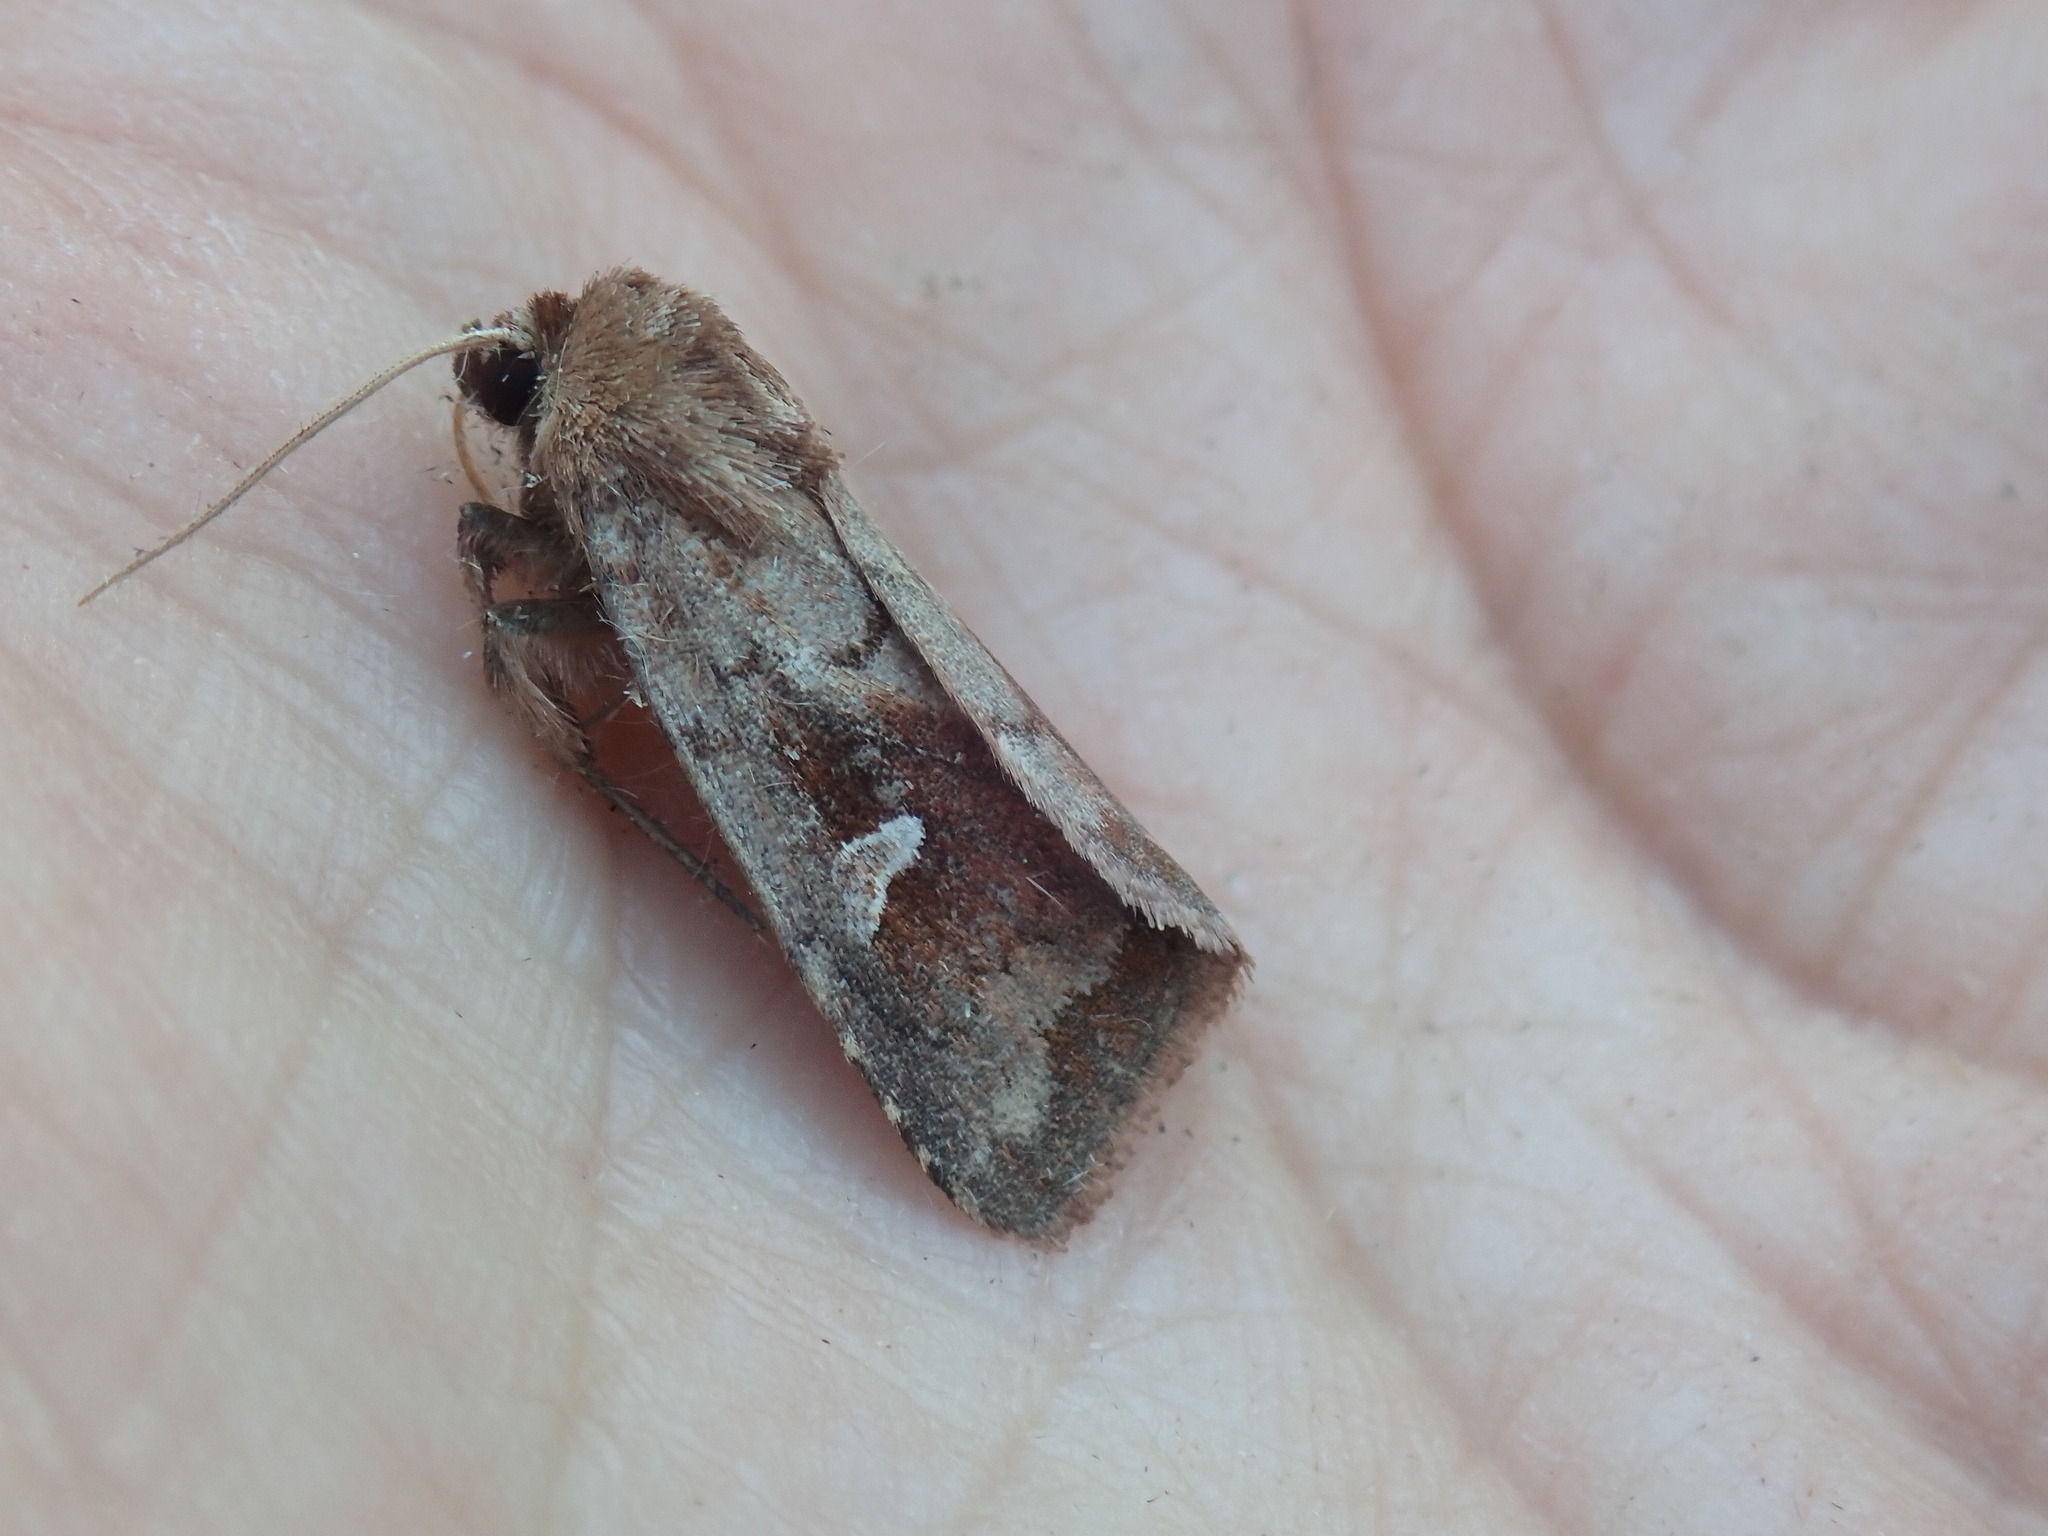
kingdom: Animalia
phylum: Arthropoda
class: Insecta
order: Lepidoptera
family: Noctuidae
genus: Iodopepla
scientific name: Iodopepla ualbum
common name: White-eyed borer moth
